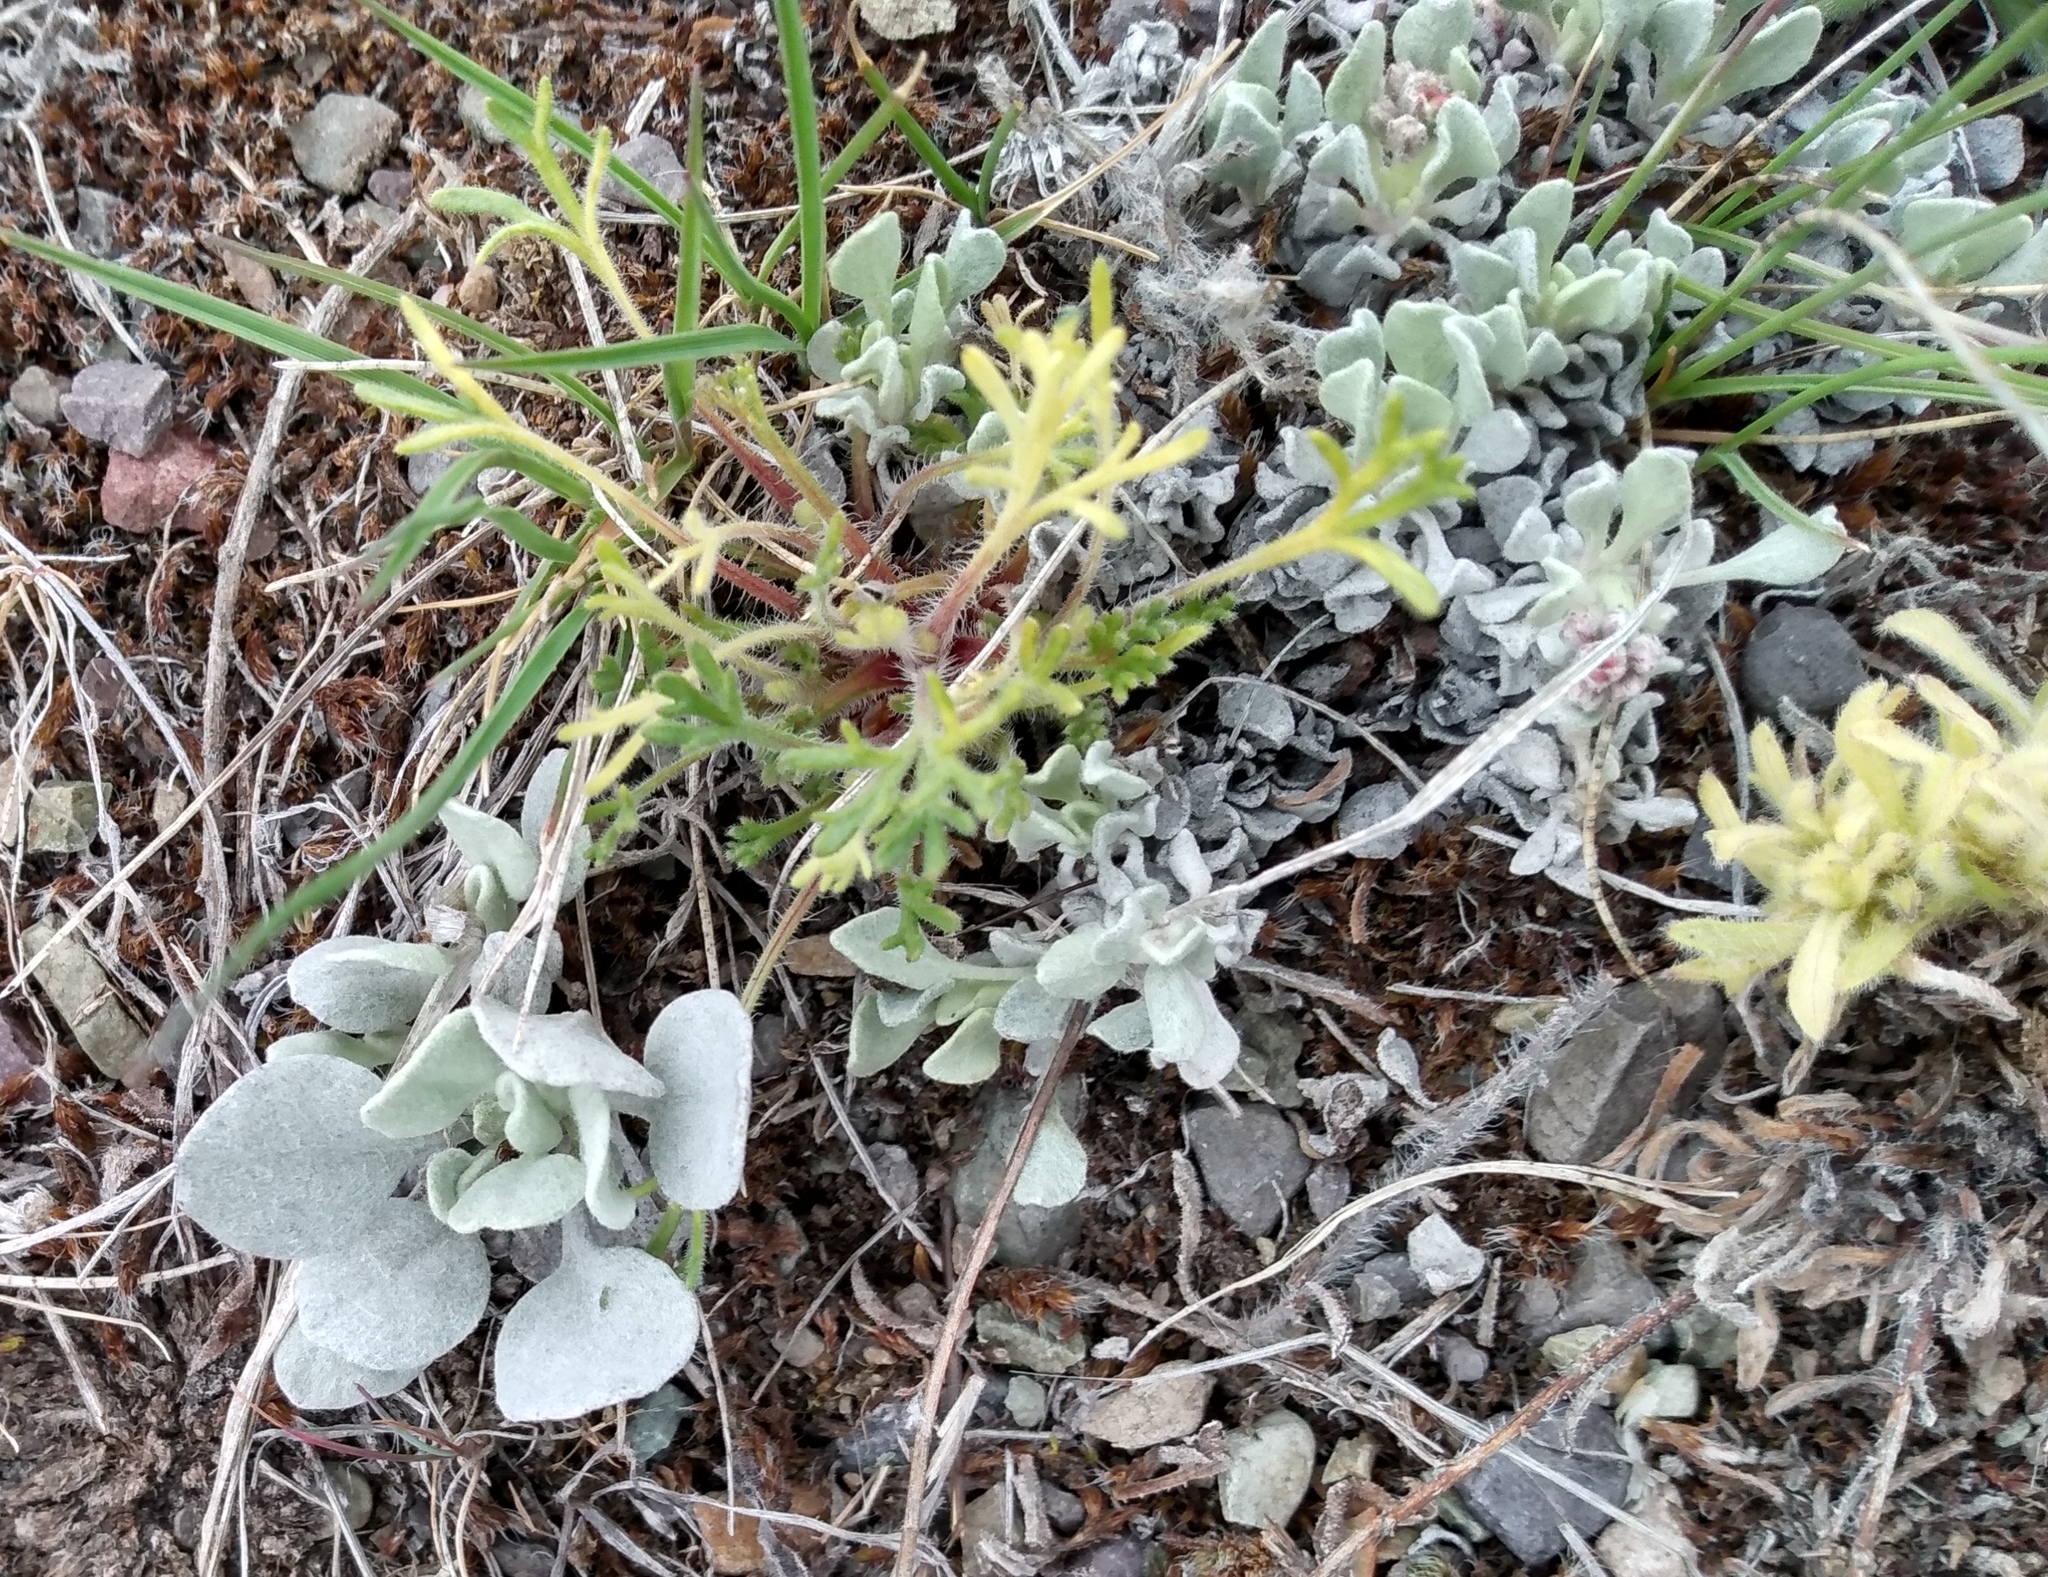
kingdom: Plantae
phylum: Tracheophyta
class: Magnoliopsida
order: Asterales
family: Asteraceae
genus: Erigeron
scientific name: Erigeron compositus
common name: Dwarf mountain fleabane
